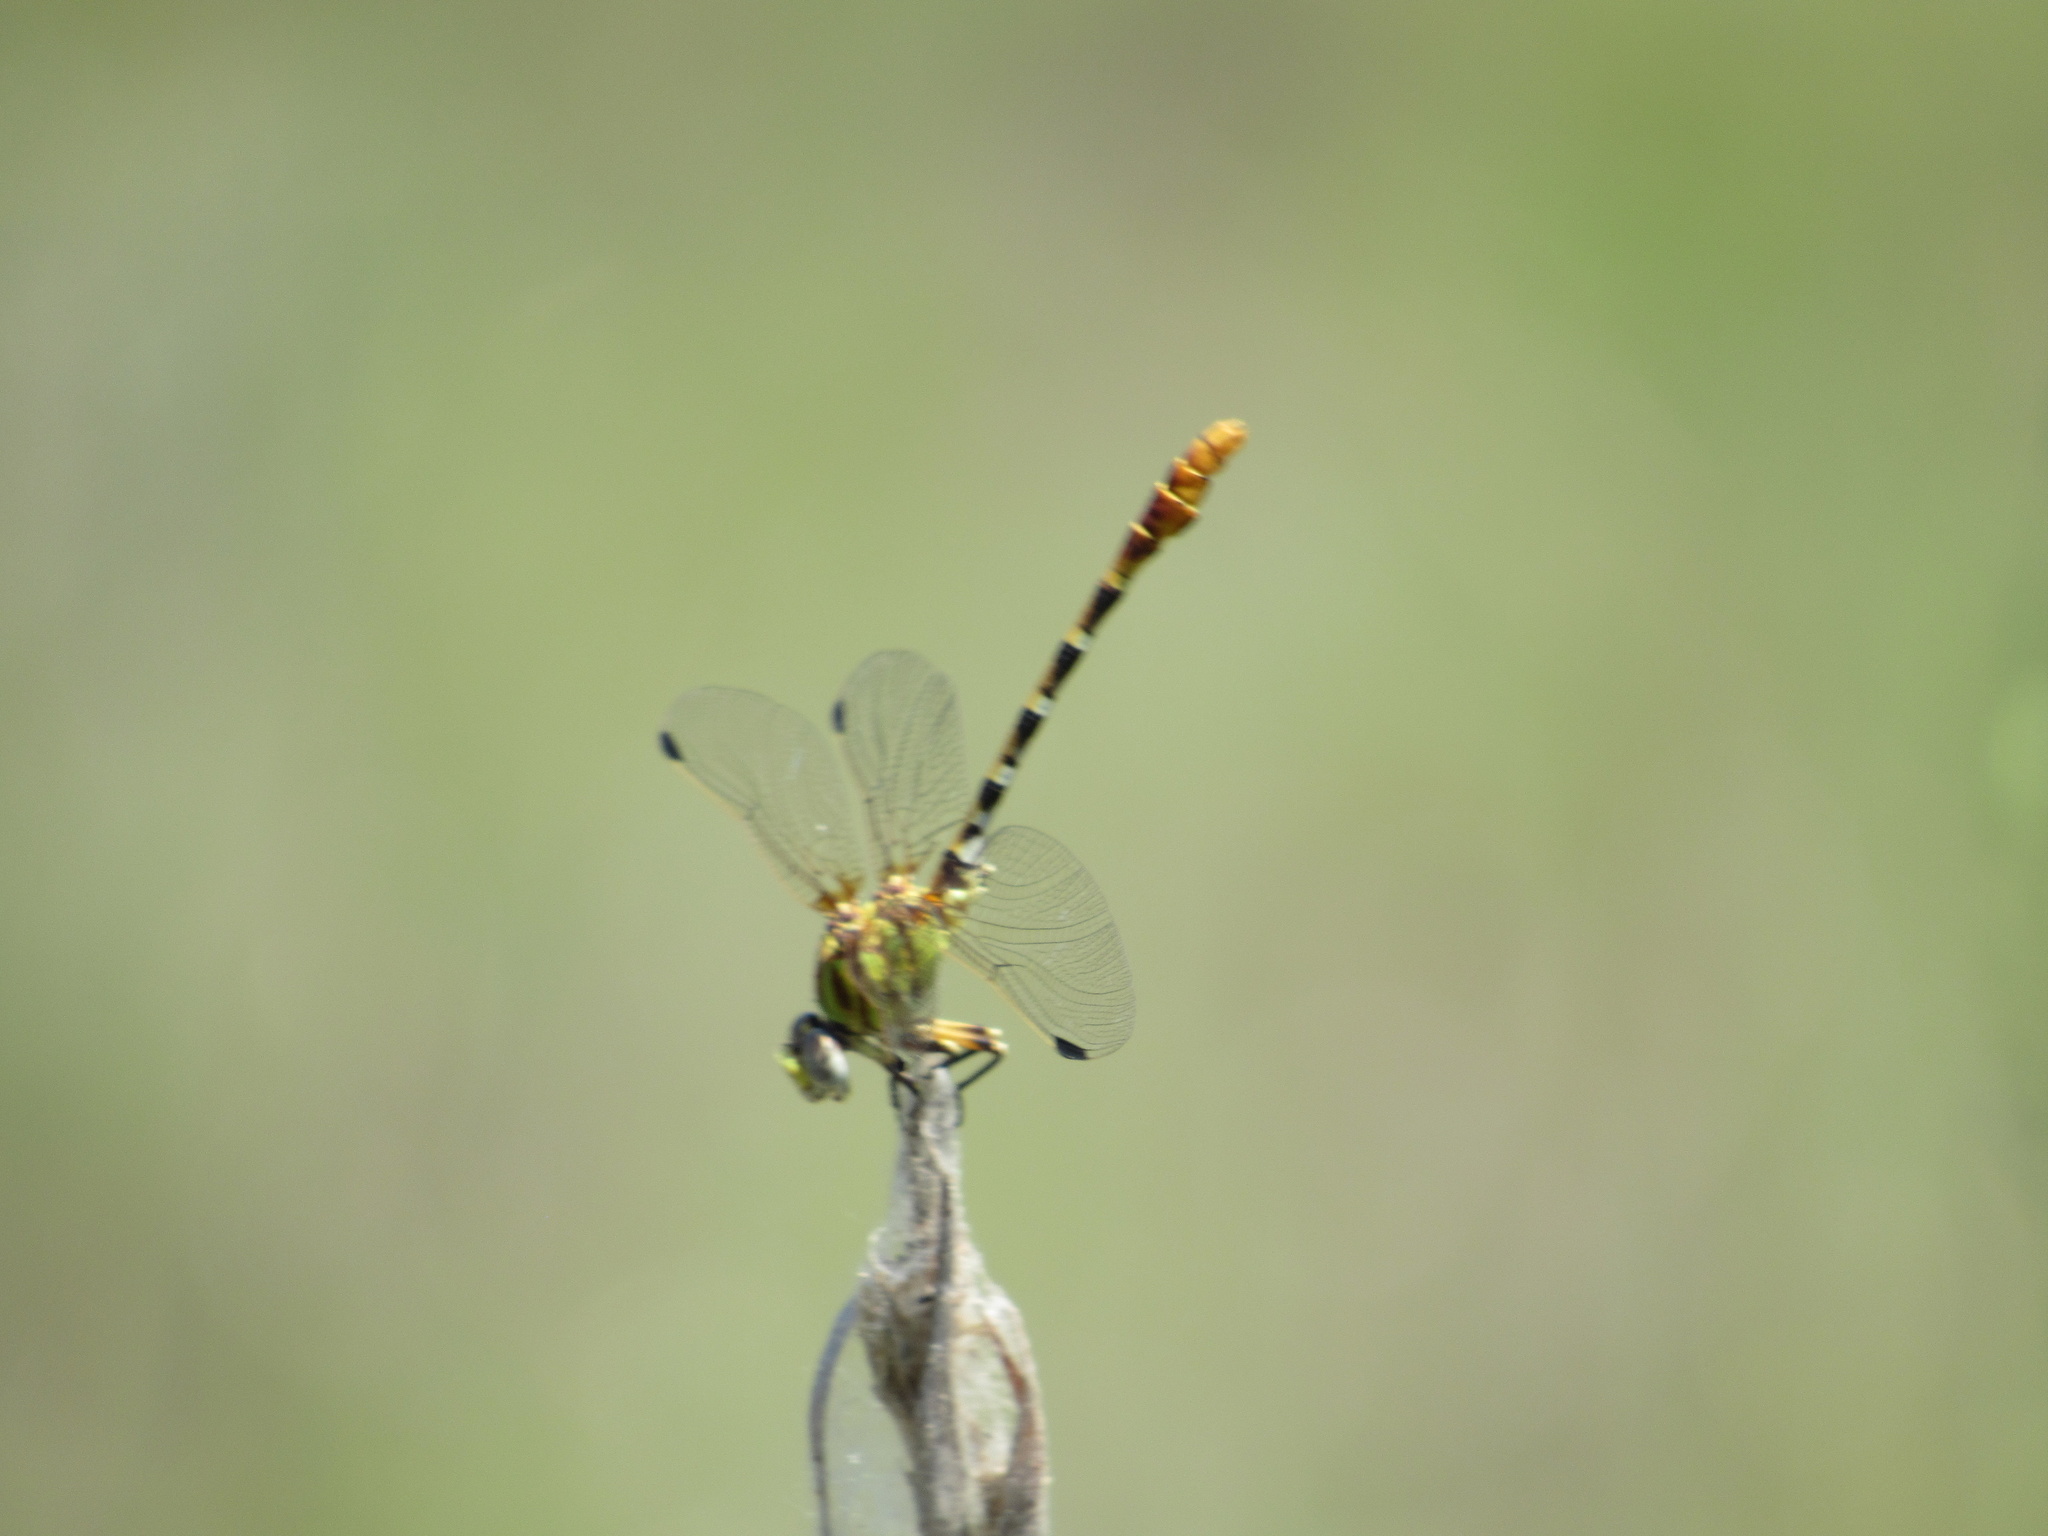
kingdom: Animalia
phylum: Arthropoda
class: Insecta
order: Odonata
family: Gomphidae
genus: Erpetogomphus
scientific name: Erpetogomphus designatus
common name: Eastern ringtail
